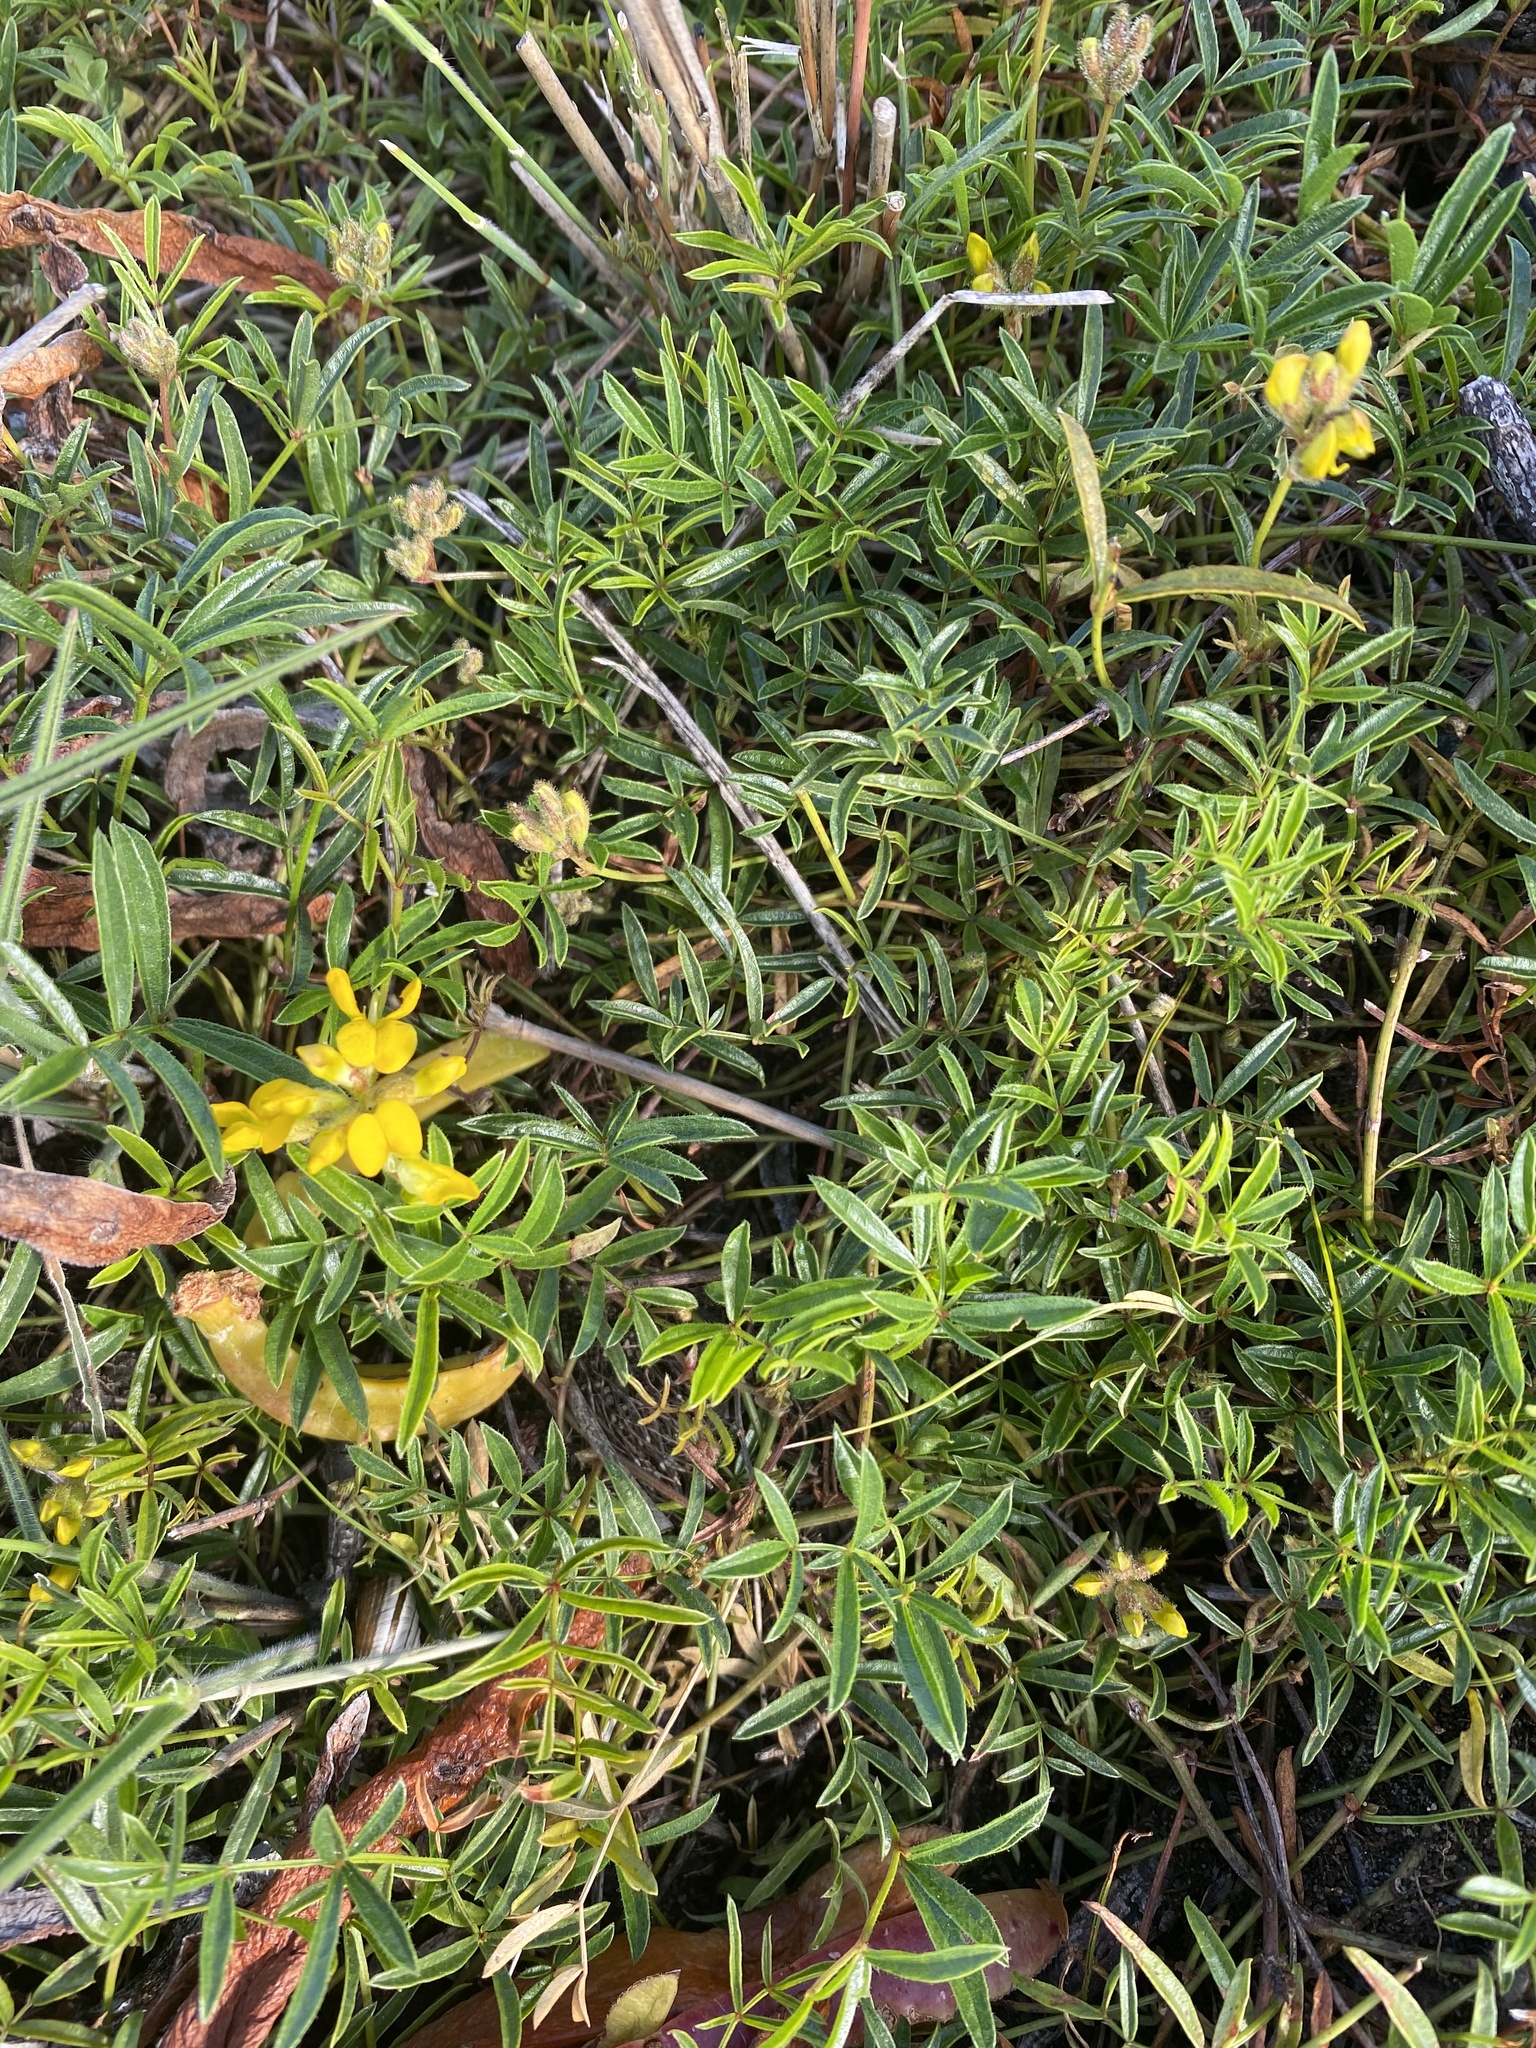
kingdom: Plantae
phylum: Tracheophyta
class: Magnoliopsida
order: Fabales
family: Fabaceae
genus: Rhynchosia
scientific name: Rhynchosia ferulifolia
